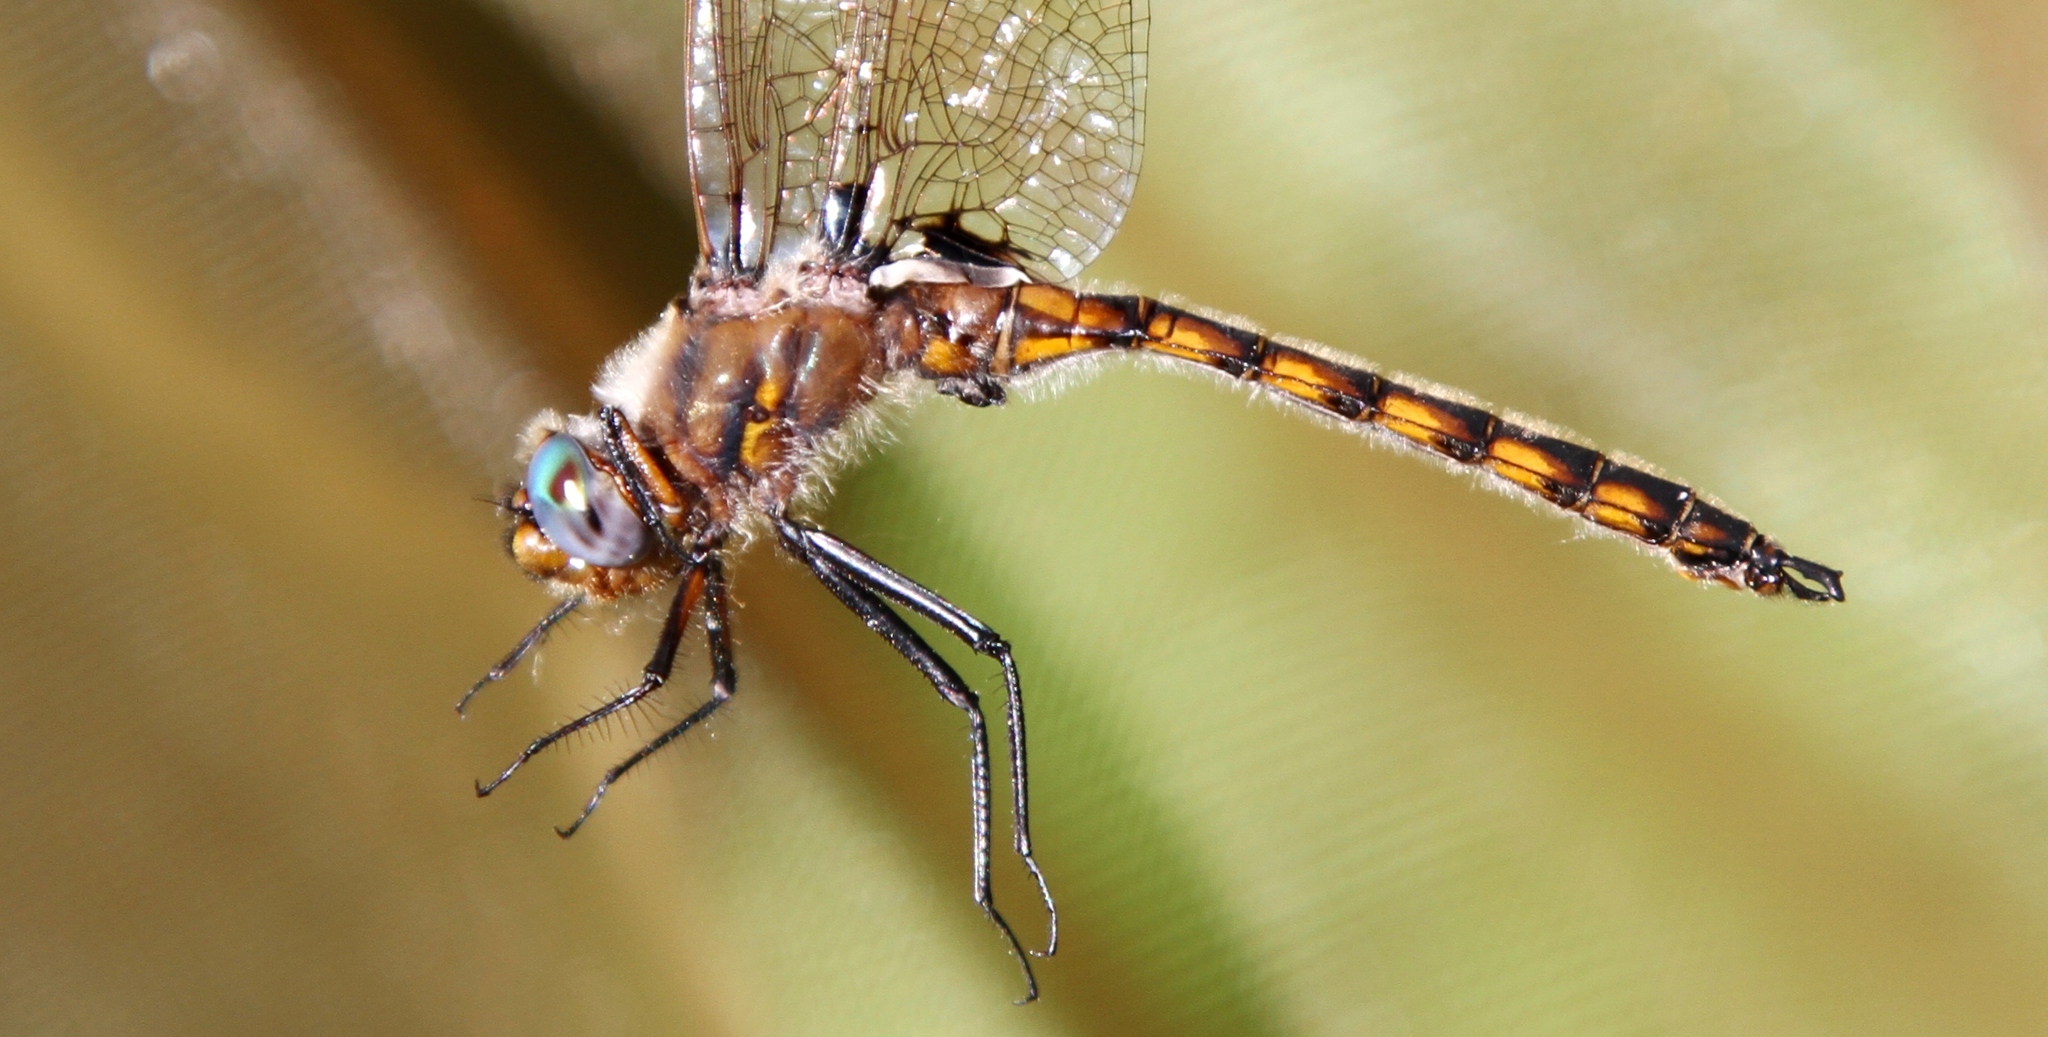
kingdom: Animalia
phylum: Arthropoda
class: Insecta
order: Odonata
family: Corduliidae
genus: Epitheca
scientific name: Epitheca canis
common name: Beaverpond baskettail
